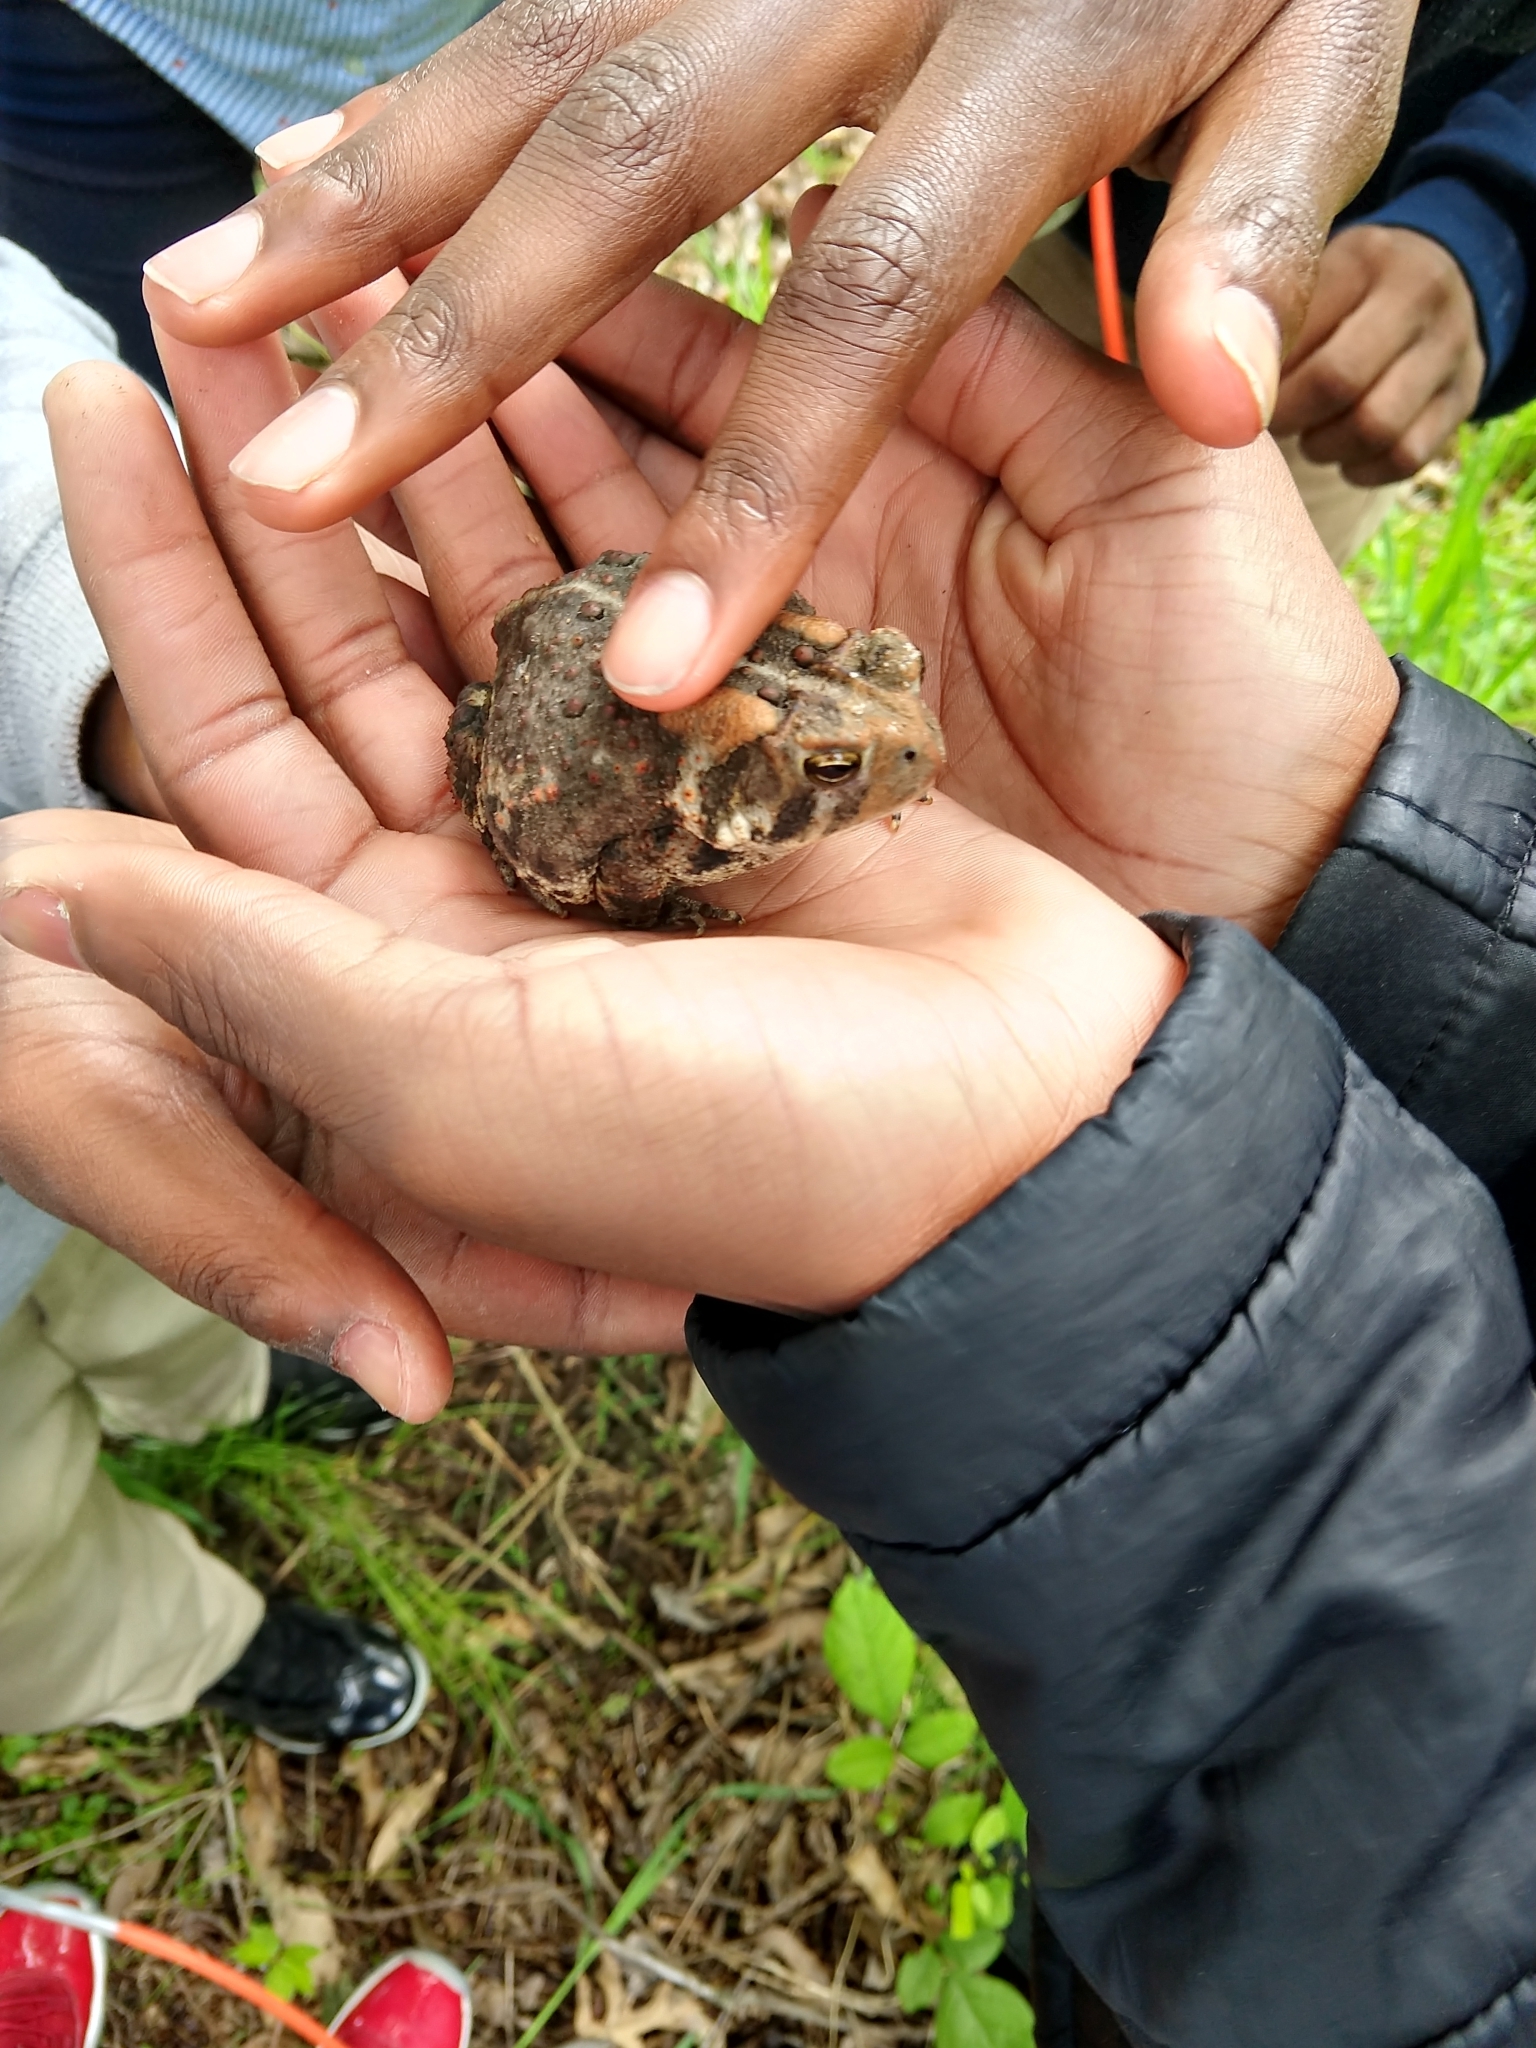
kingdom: Animalia
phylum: Chordata
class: Amphibia
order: Anura
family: Bufonidae
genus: Anaxyrus
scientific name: Anaxyrus americanus
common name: American toad
